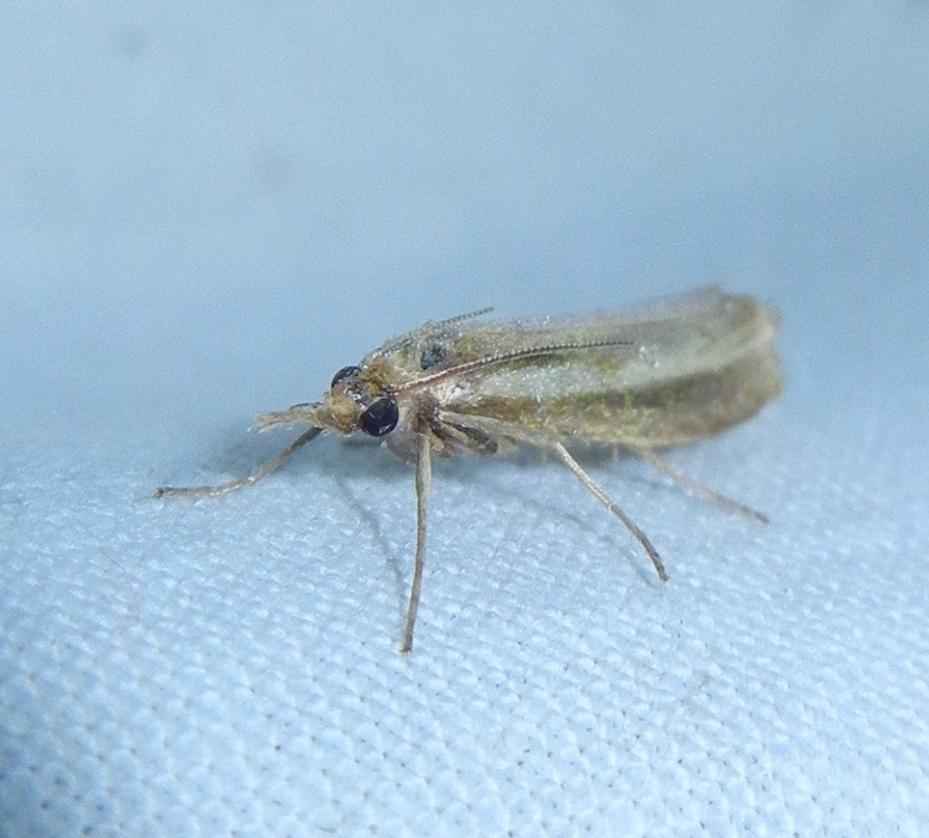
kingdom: Animalia
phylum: Arthropoda
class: Insecta
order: Lepidoptera
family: Crambidae
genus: Agriphila
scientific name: Agriphila tristellus
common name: Common grass-veneer
